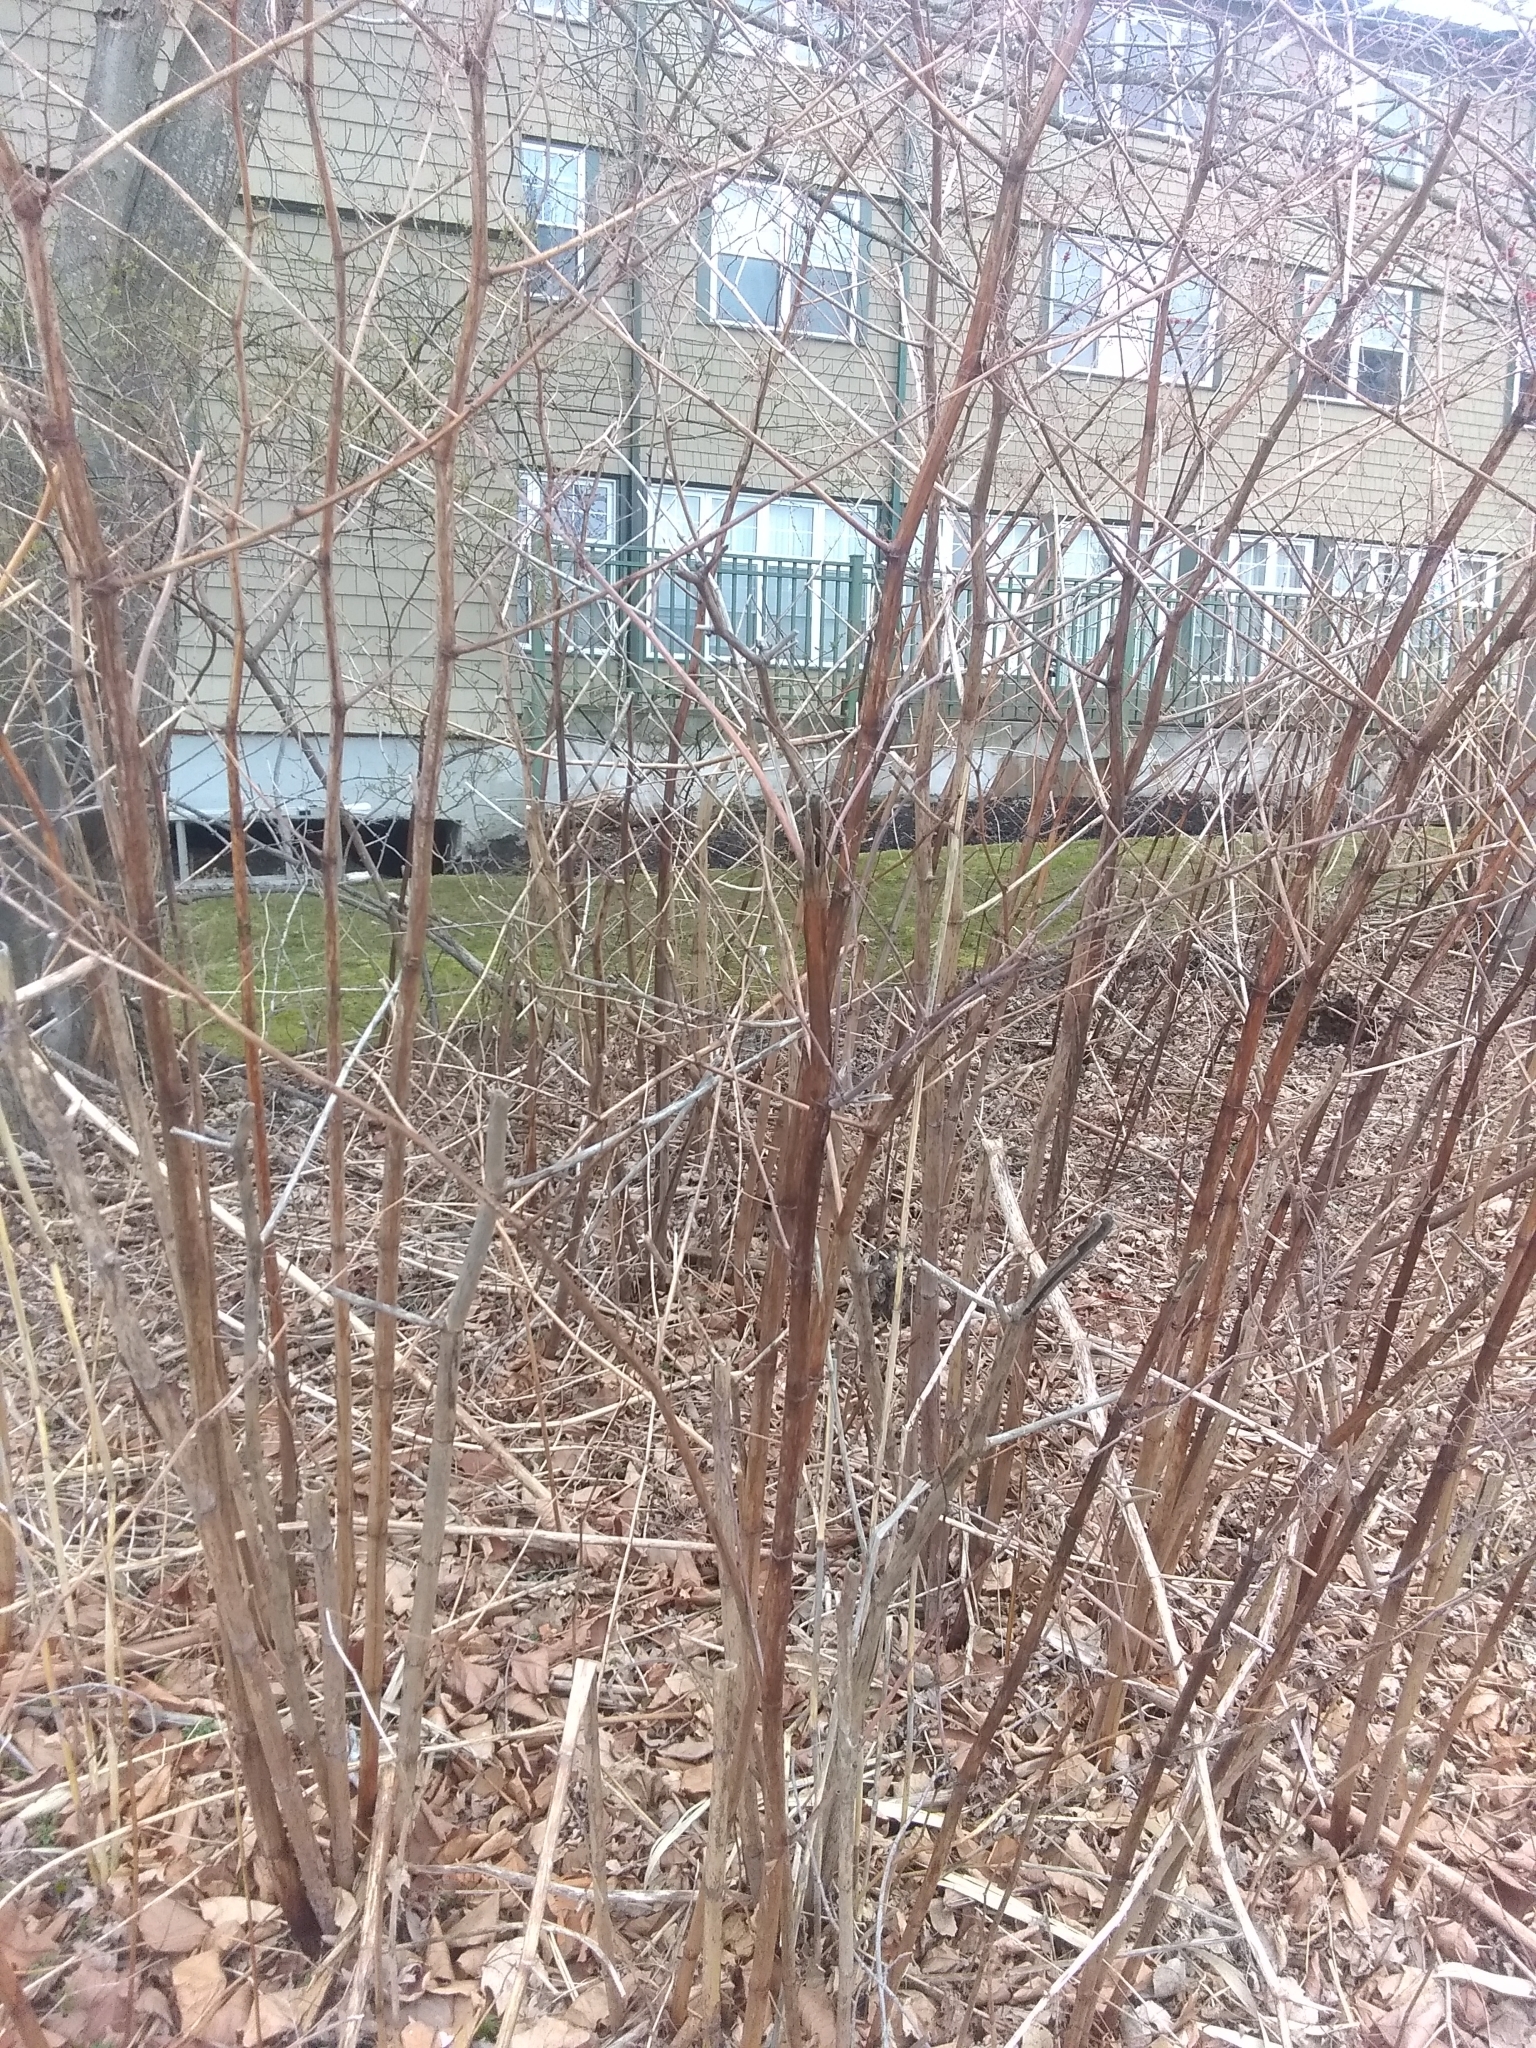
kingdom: Plantae
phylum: Tracheophyta
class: Magnoliopsida
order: Caryophyllales
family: Polygonaceae
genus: Reynoutria
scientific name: Reynoutria japonica
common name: Japanese knotweed
